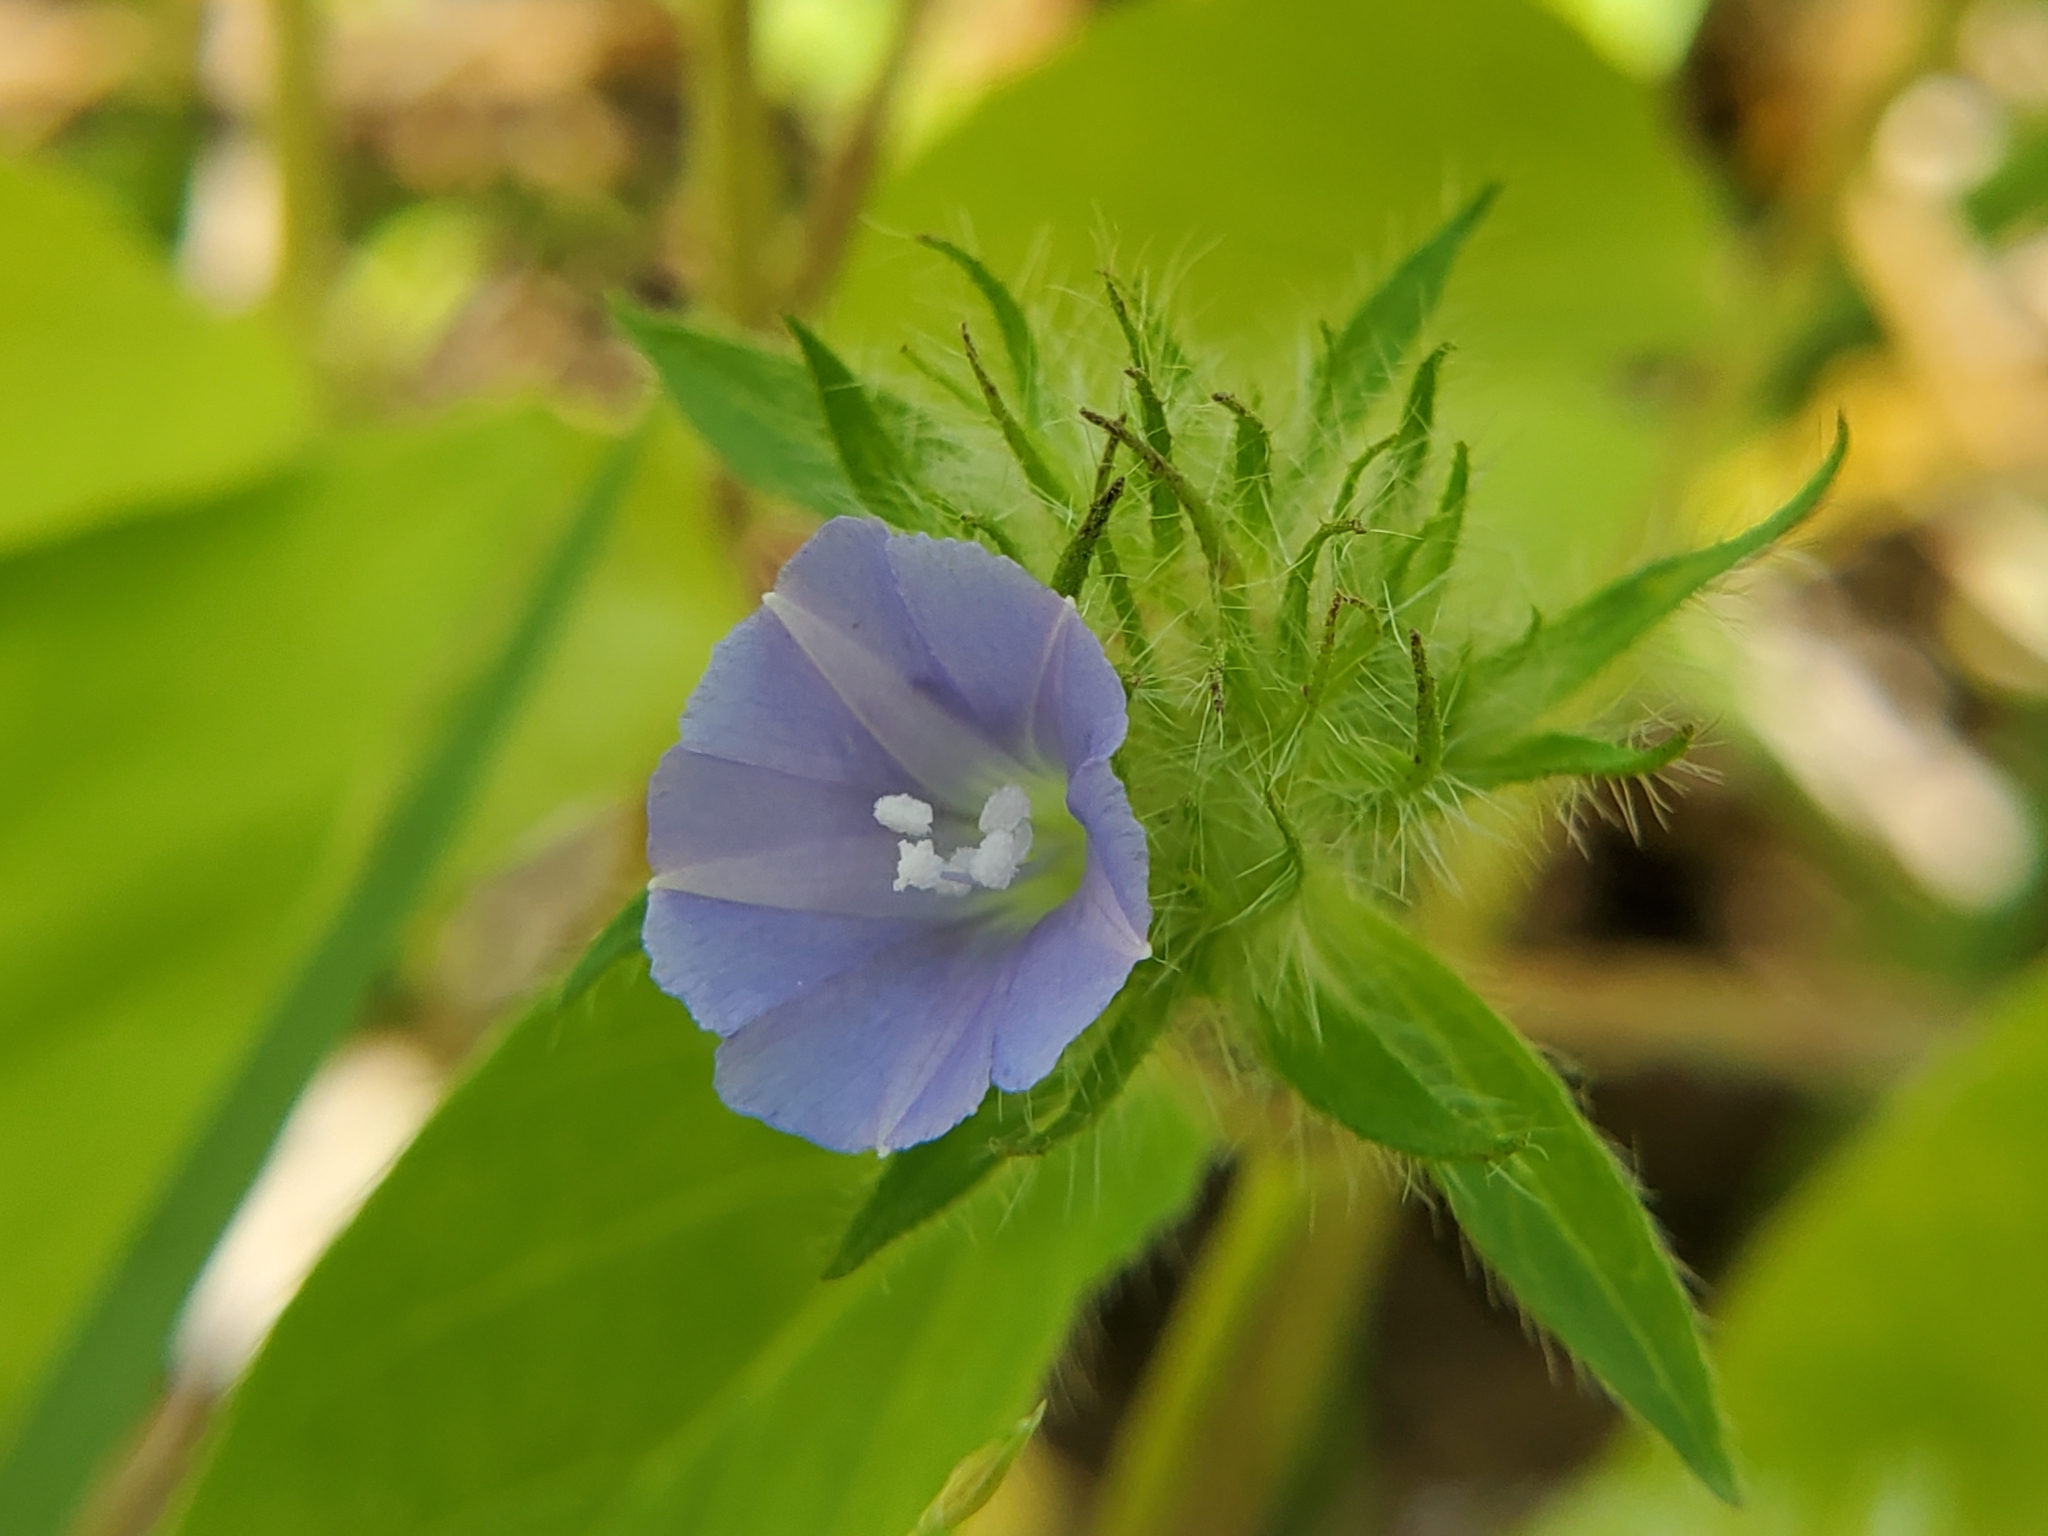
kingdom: Plantae
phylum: Tracheophyta
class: Magnoliopsida
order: Solanales
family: Convolvulaceae
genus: Jacquemontia
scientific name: Jacquemontia tamnifolia
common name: Hairy clustervine
